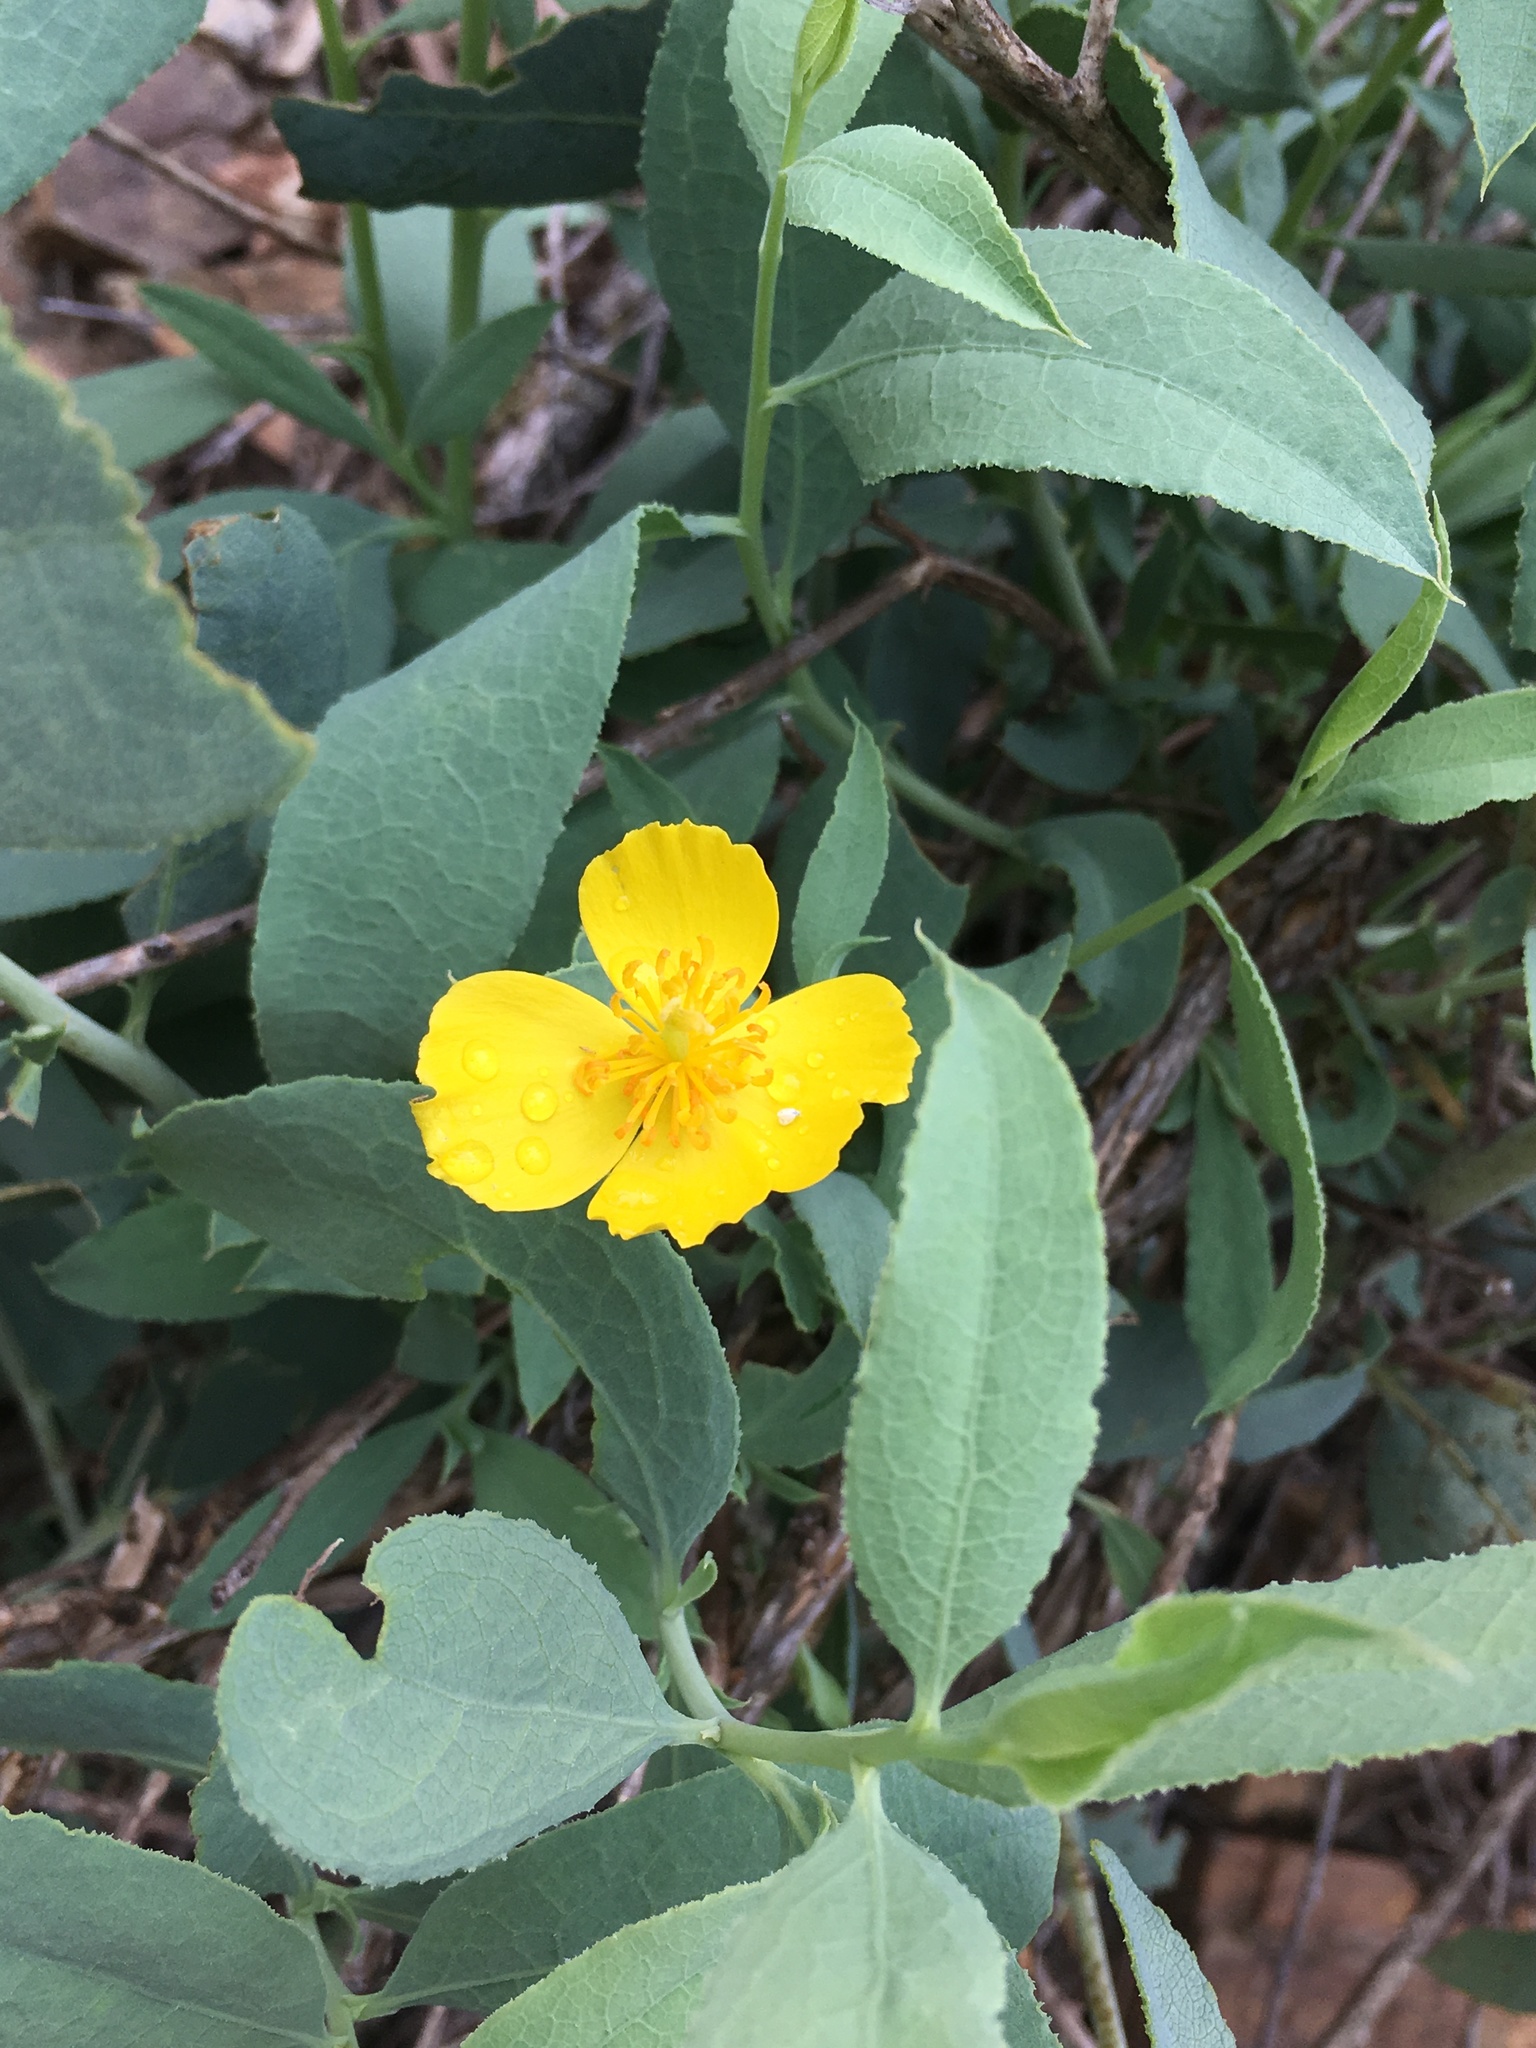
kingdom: Plantae
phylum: Tracheophyta
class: Magnoliopsida
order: Ranunculales
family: Papaveraceae
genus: Dendromecon
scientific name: Dendromecon rigida
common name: Tree poppy
